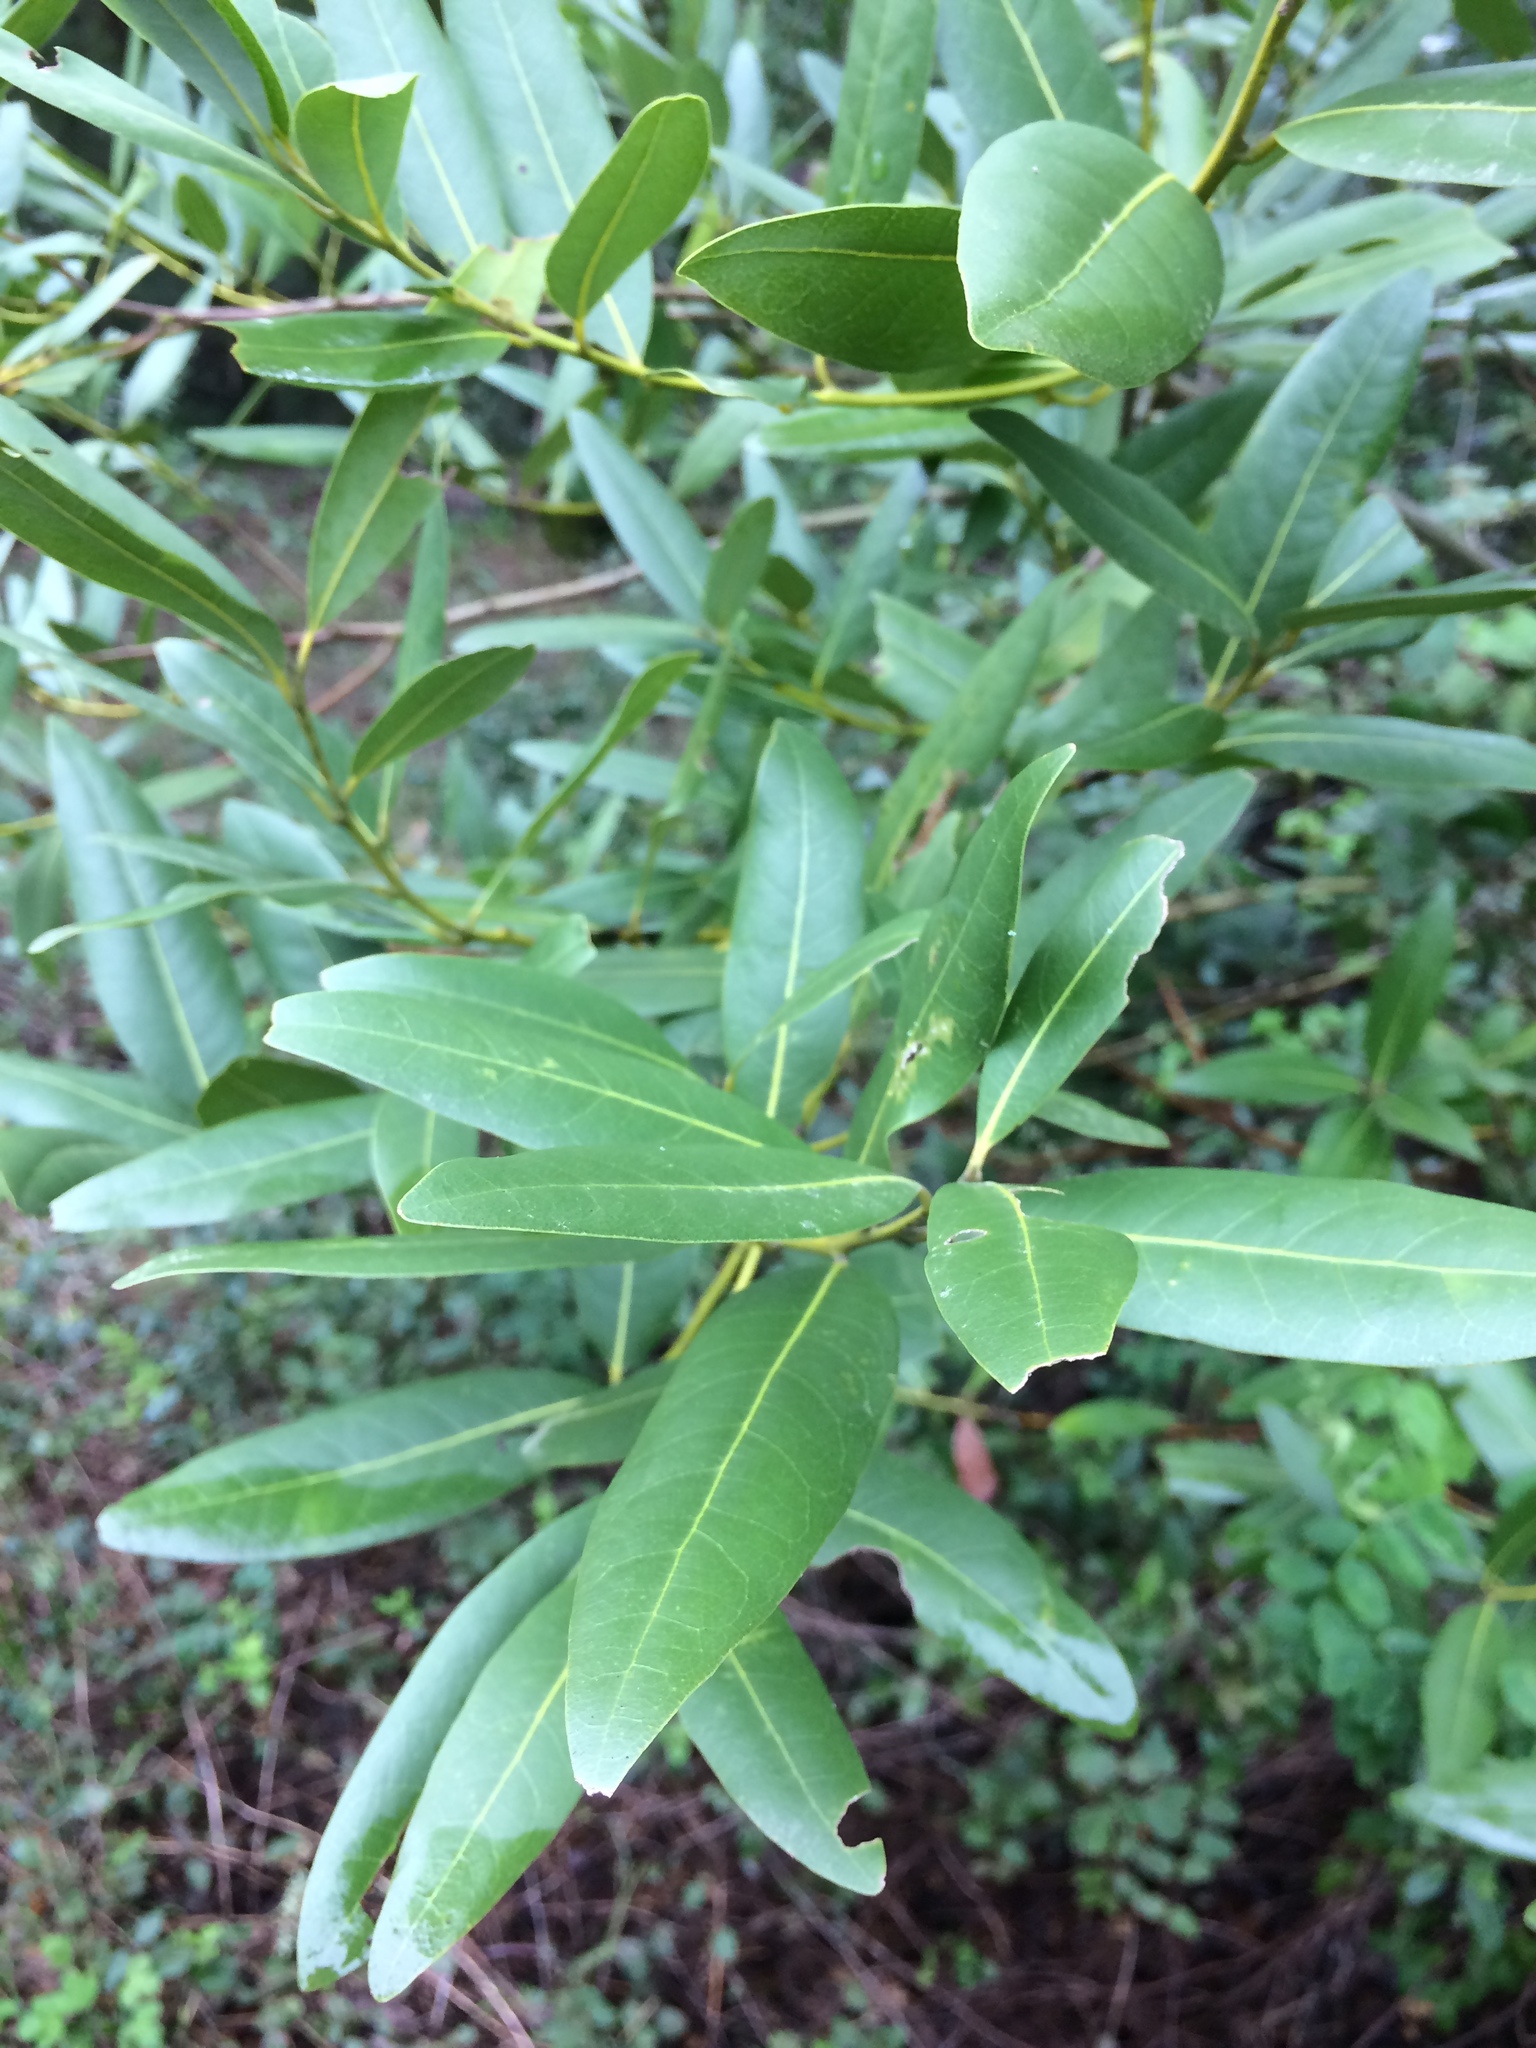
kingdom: Plantae
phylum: Tracheophyta
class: Magnoliopsida
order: Laurales
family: Lauraceae
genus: Umbellularia
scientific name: Umbellularia californica
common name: California bay
